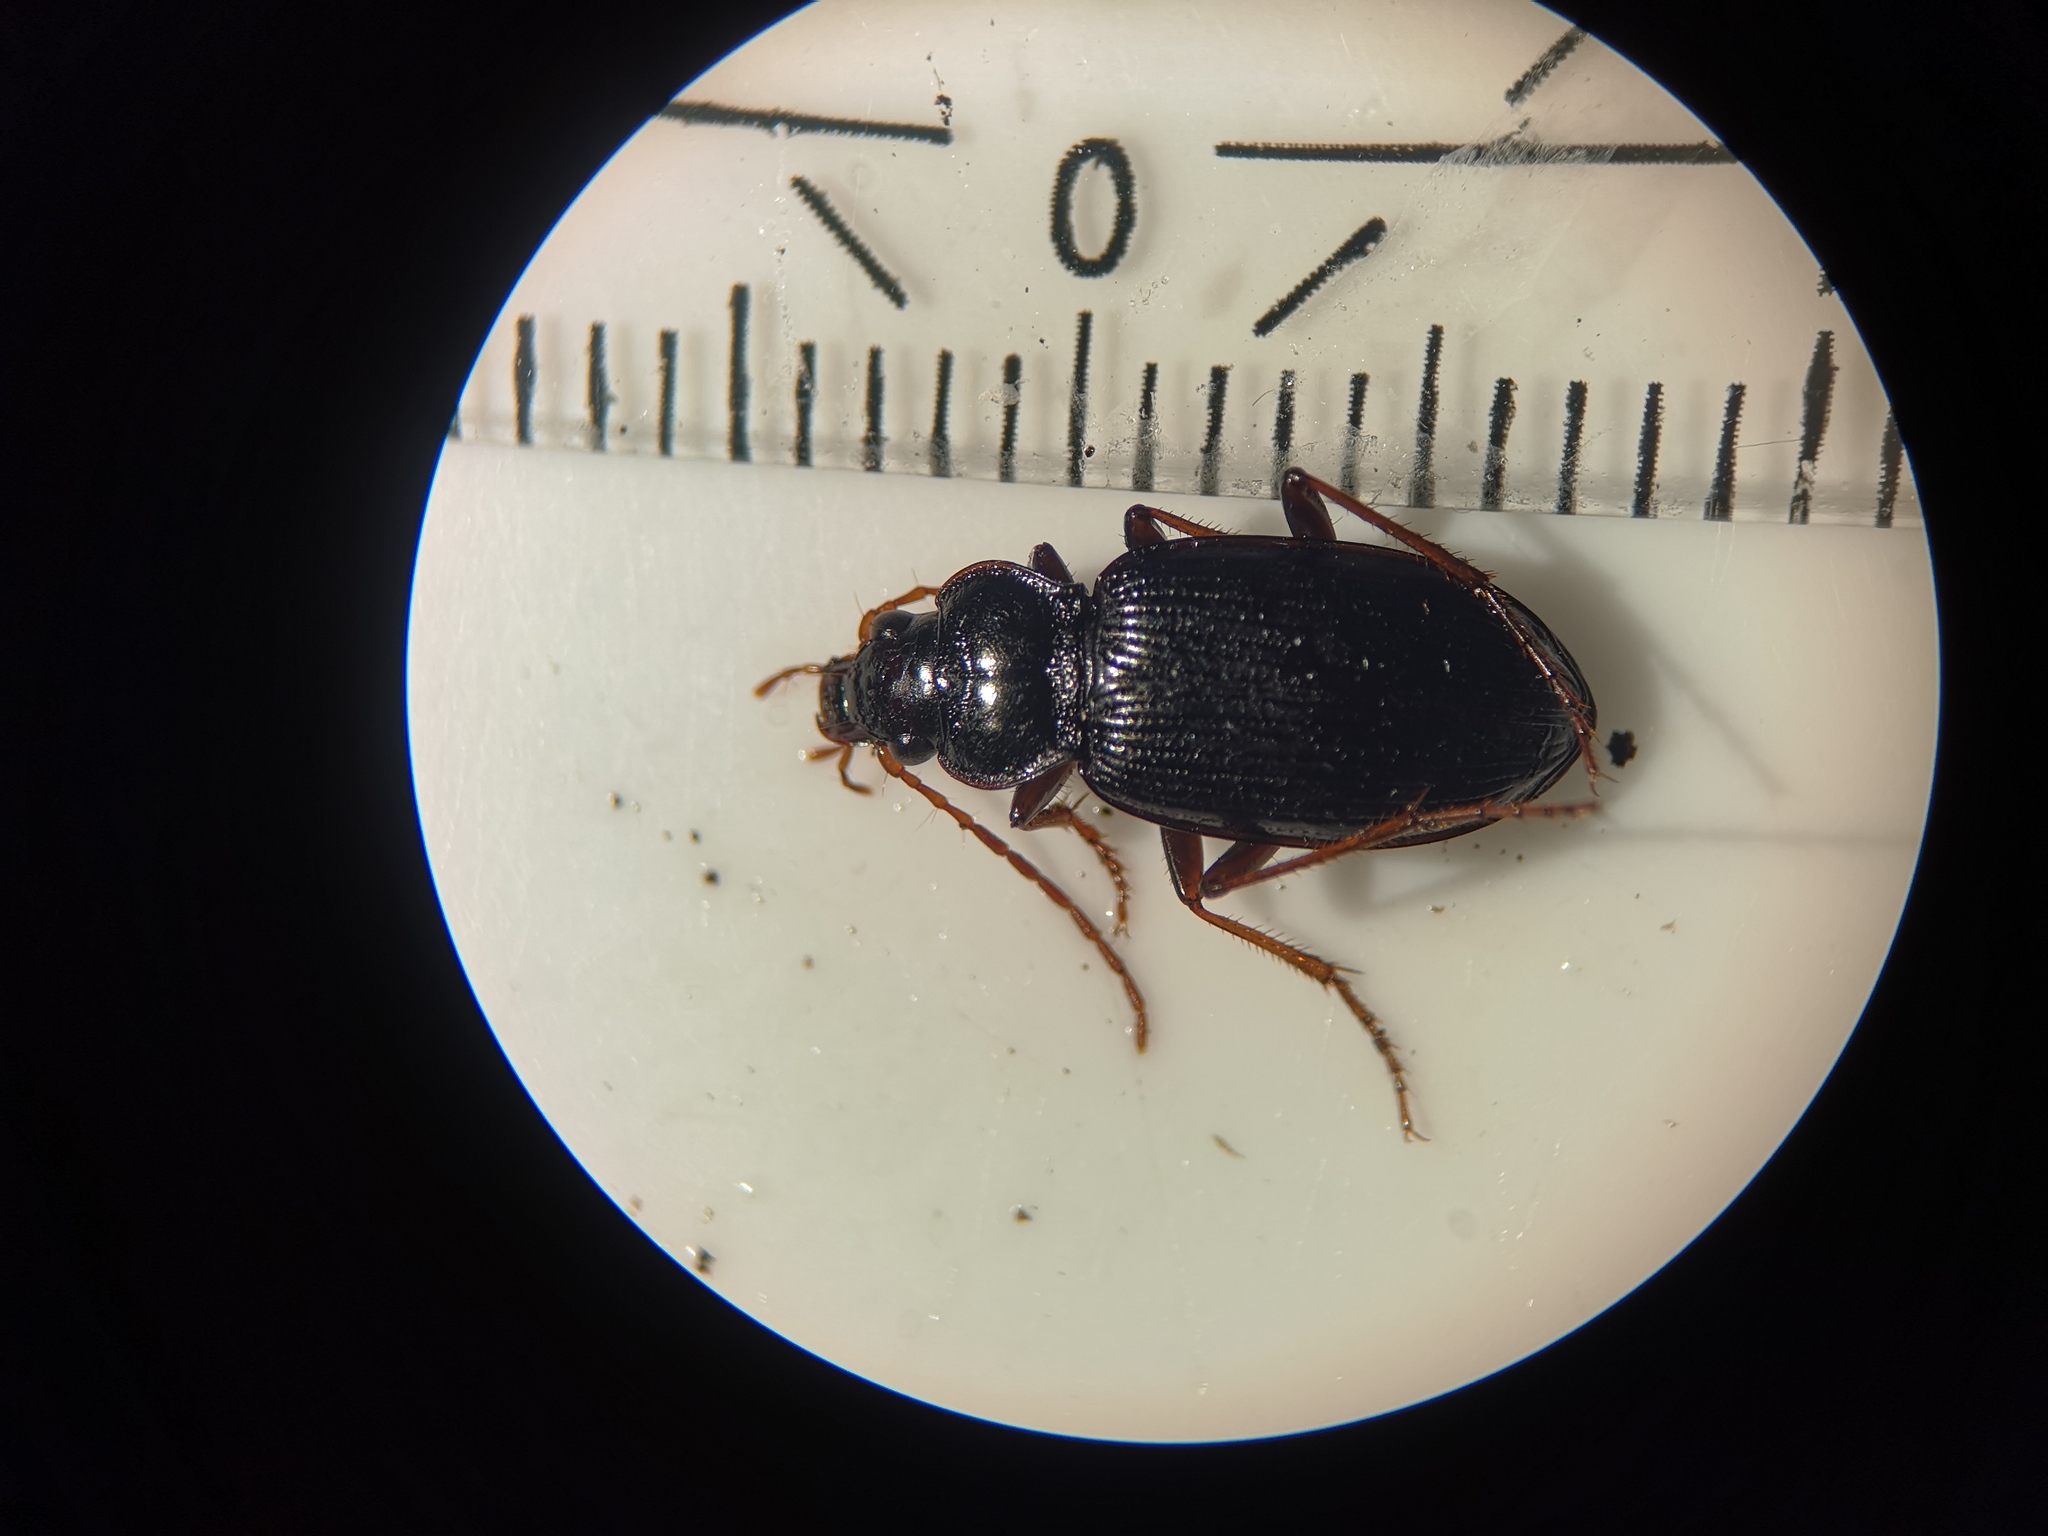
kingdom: Animalia
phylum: Arthropoda
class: Insecta
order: Coleoptera
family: Carabidae
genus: Nebria
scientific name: Nebria brevicollis
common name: Short-necked gazelle beetle
